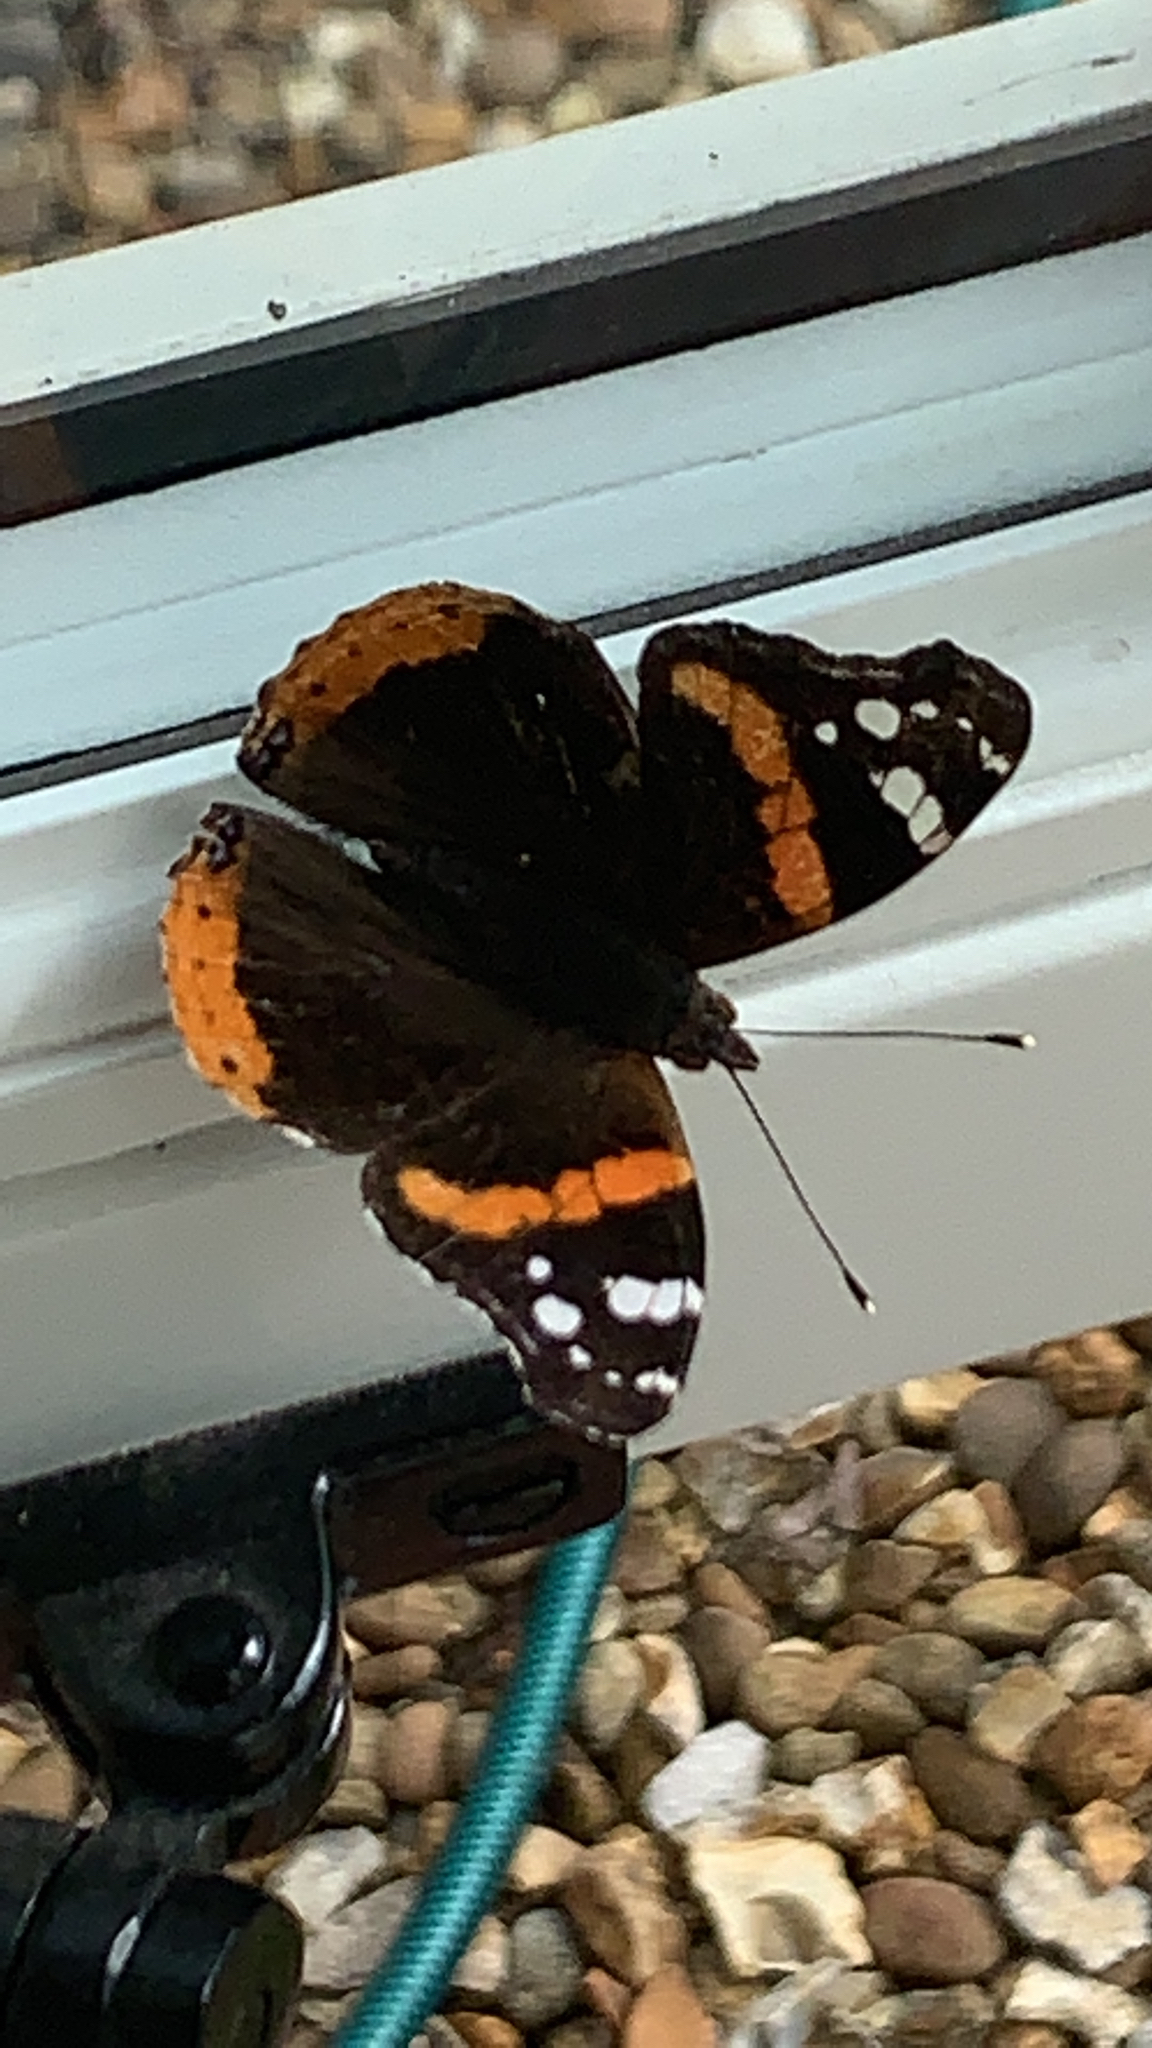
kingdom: Animalia
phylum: Arthropoda
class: Insecta
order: Lepidoptera
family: Nymphalidae
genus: Vanessa
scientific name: Vanessa atalanta
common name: Red admiral
